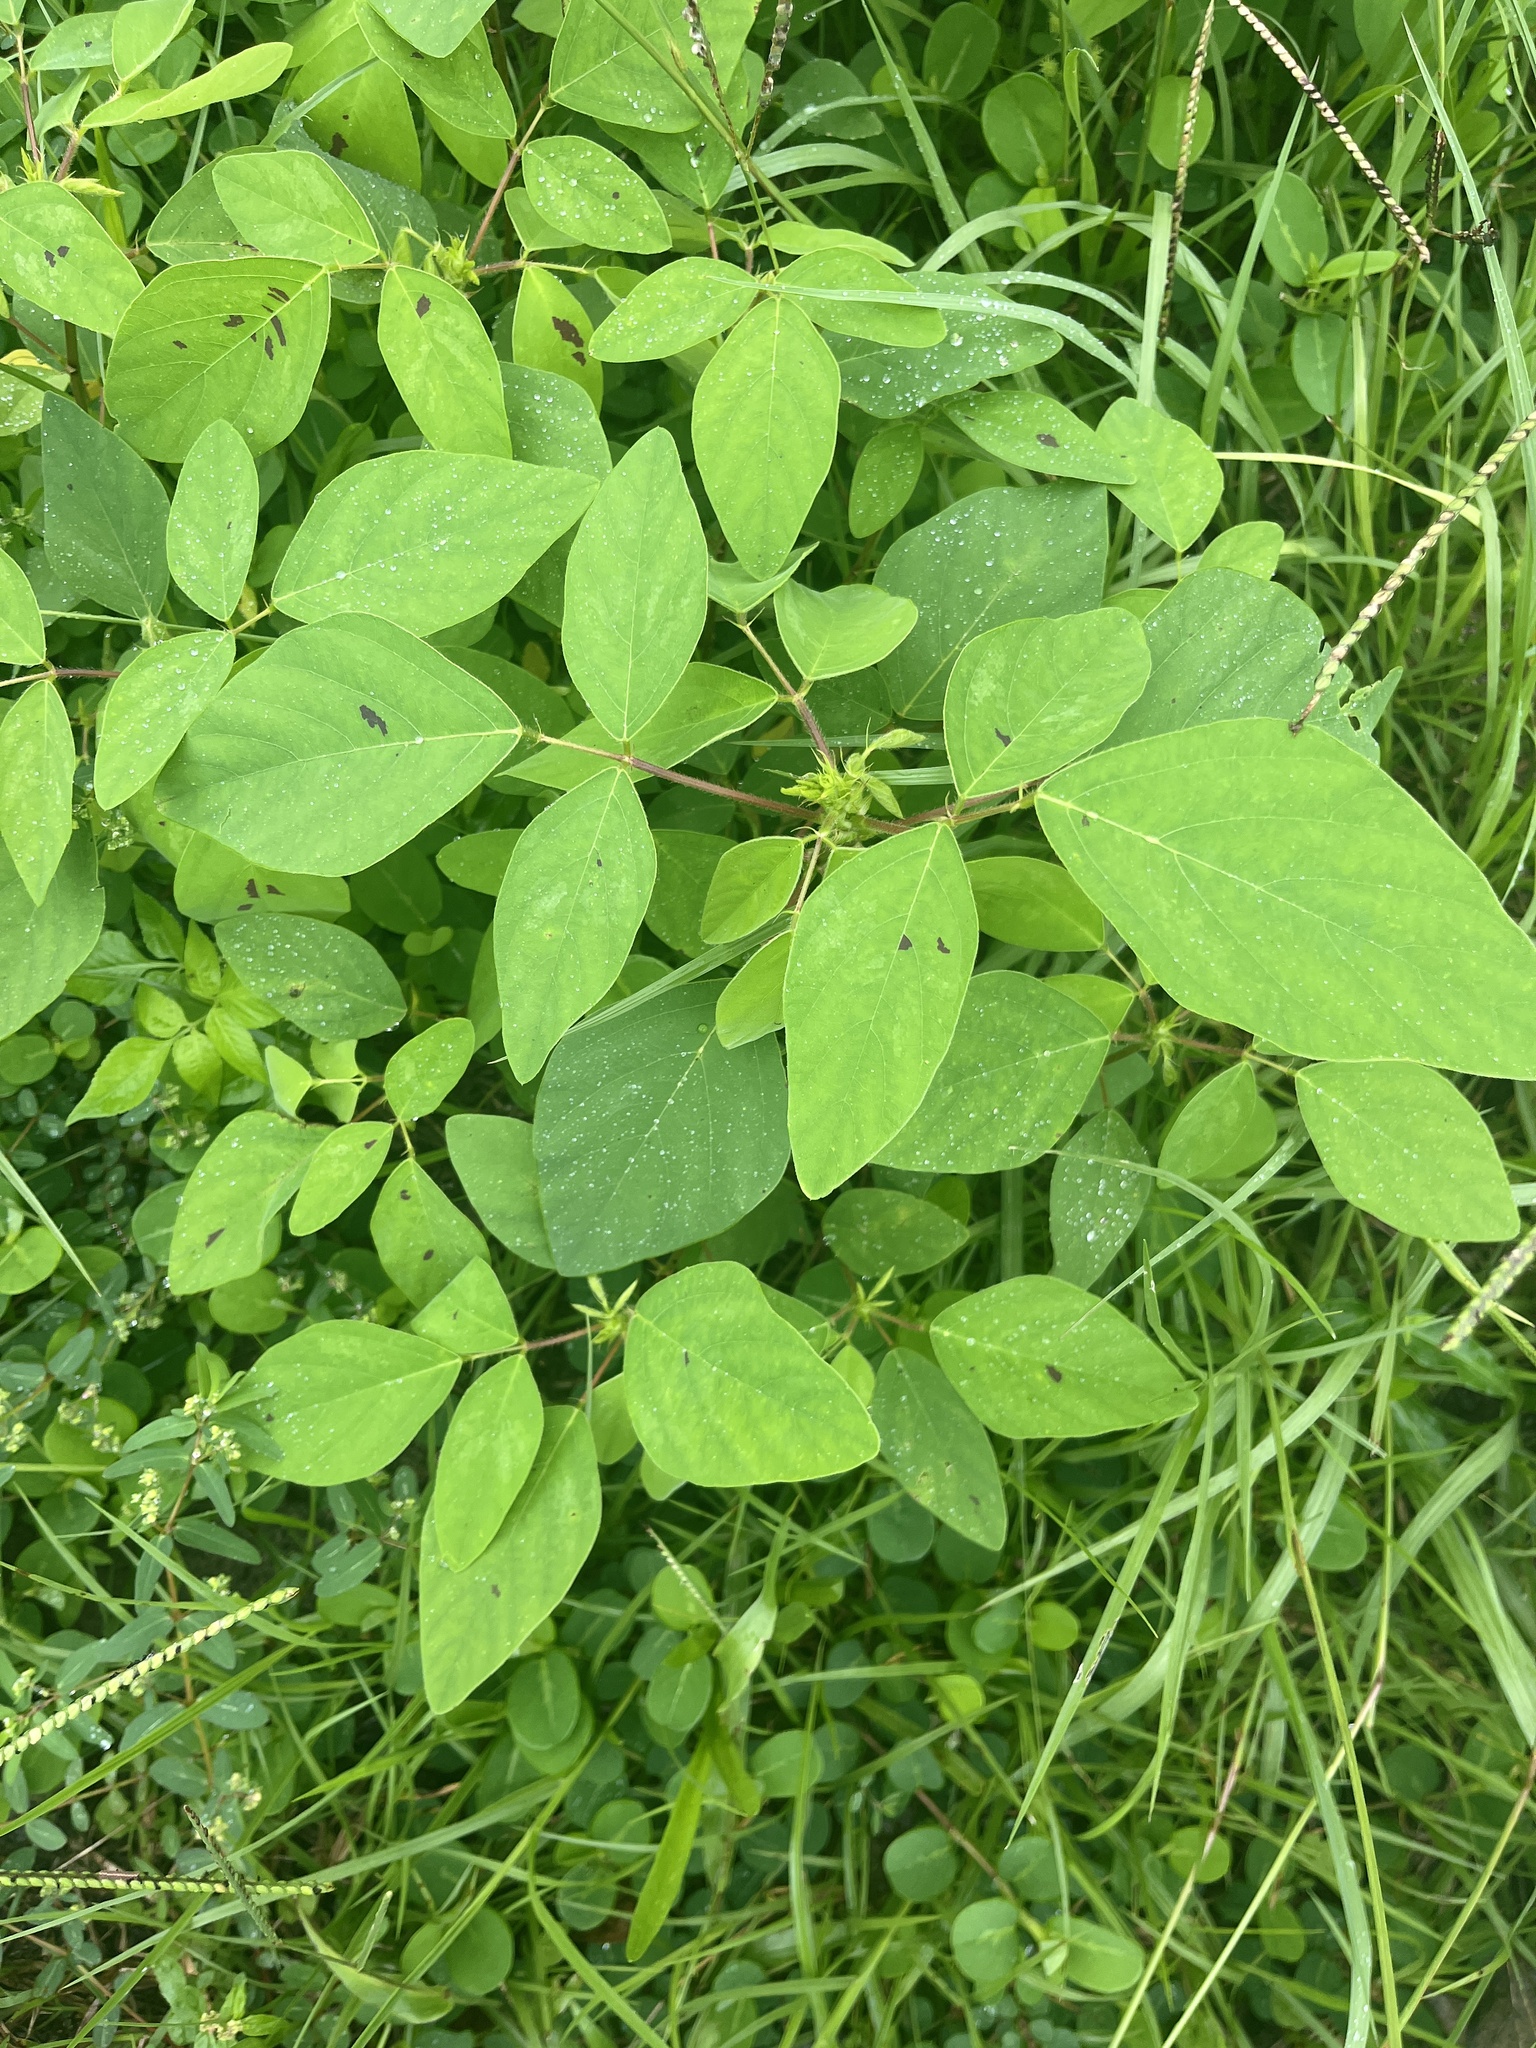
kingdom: Plantae
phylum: Tracheophyta
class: Magnoliopsida
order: Fabales
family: Fabaceae
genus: Desmodium
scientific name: Desmodium tortuosum
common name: Dixie ticktrefoil
